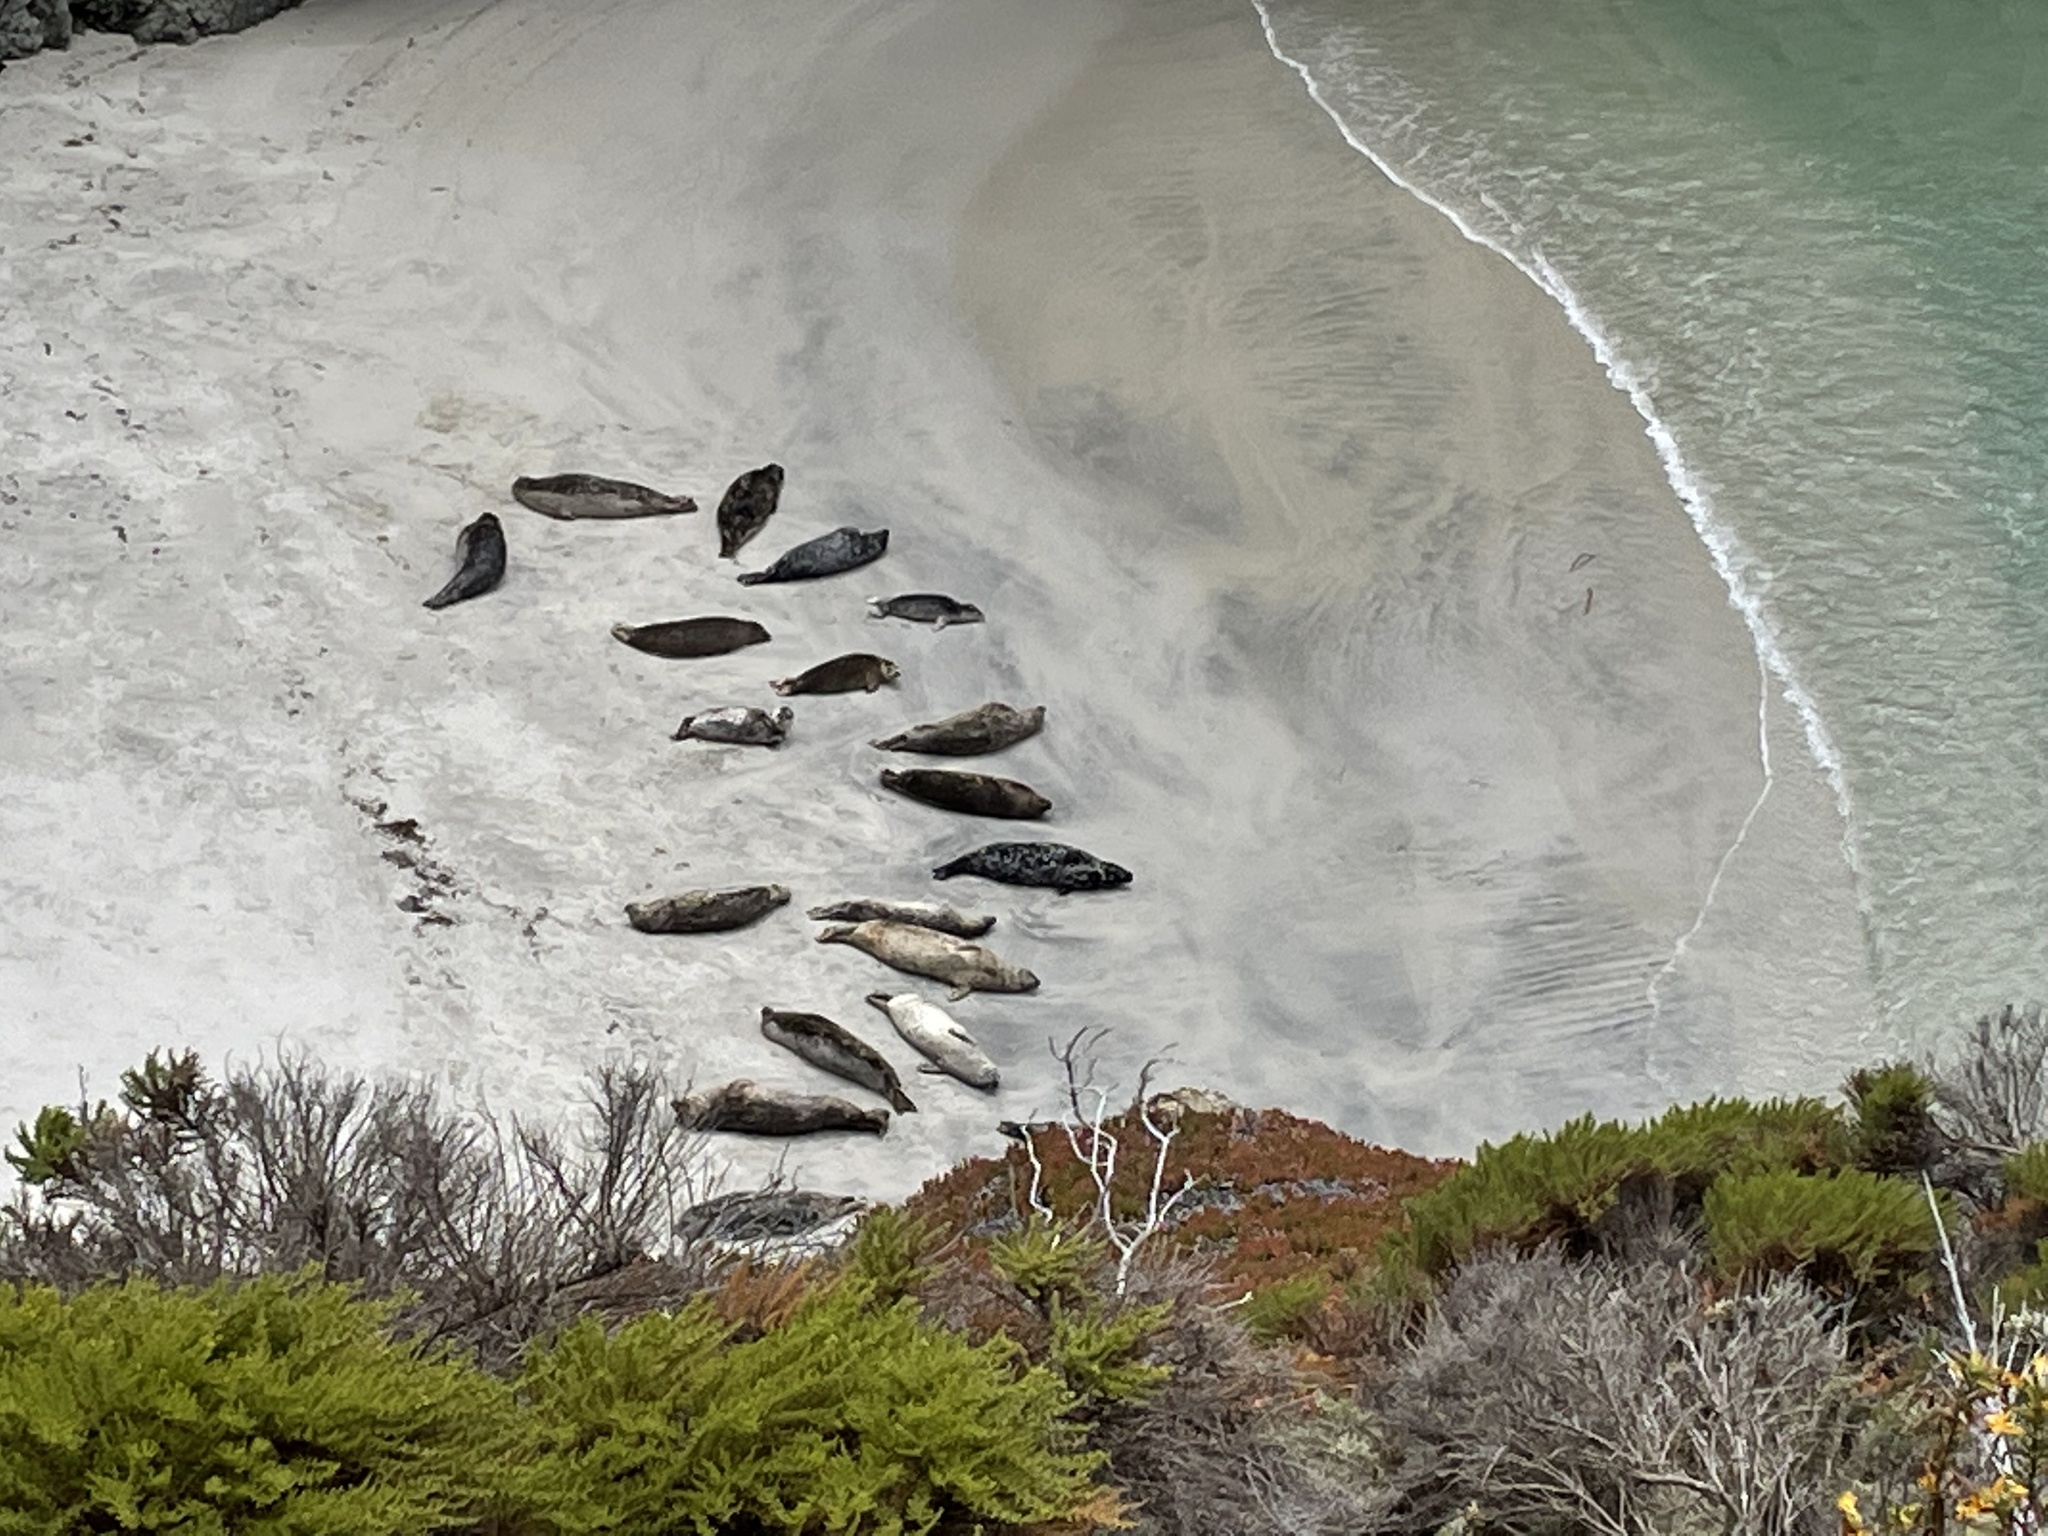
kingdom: Animalia
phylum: Chordata
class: Mammalia
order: Carnivora
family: Phocidae
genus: Phoca
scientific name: Phoca vitulina
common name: Harbor seal
